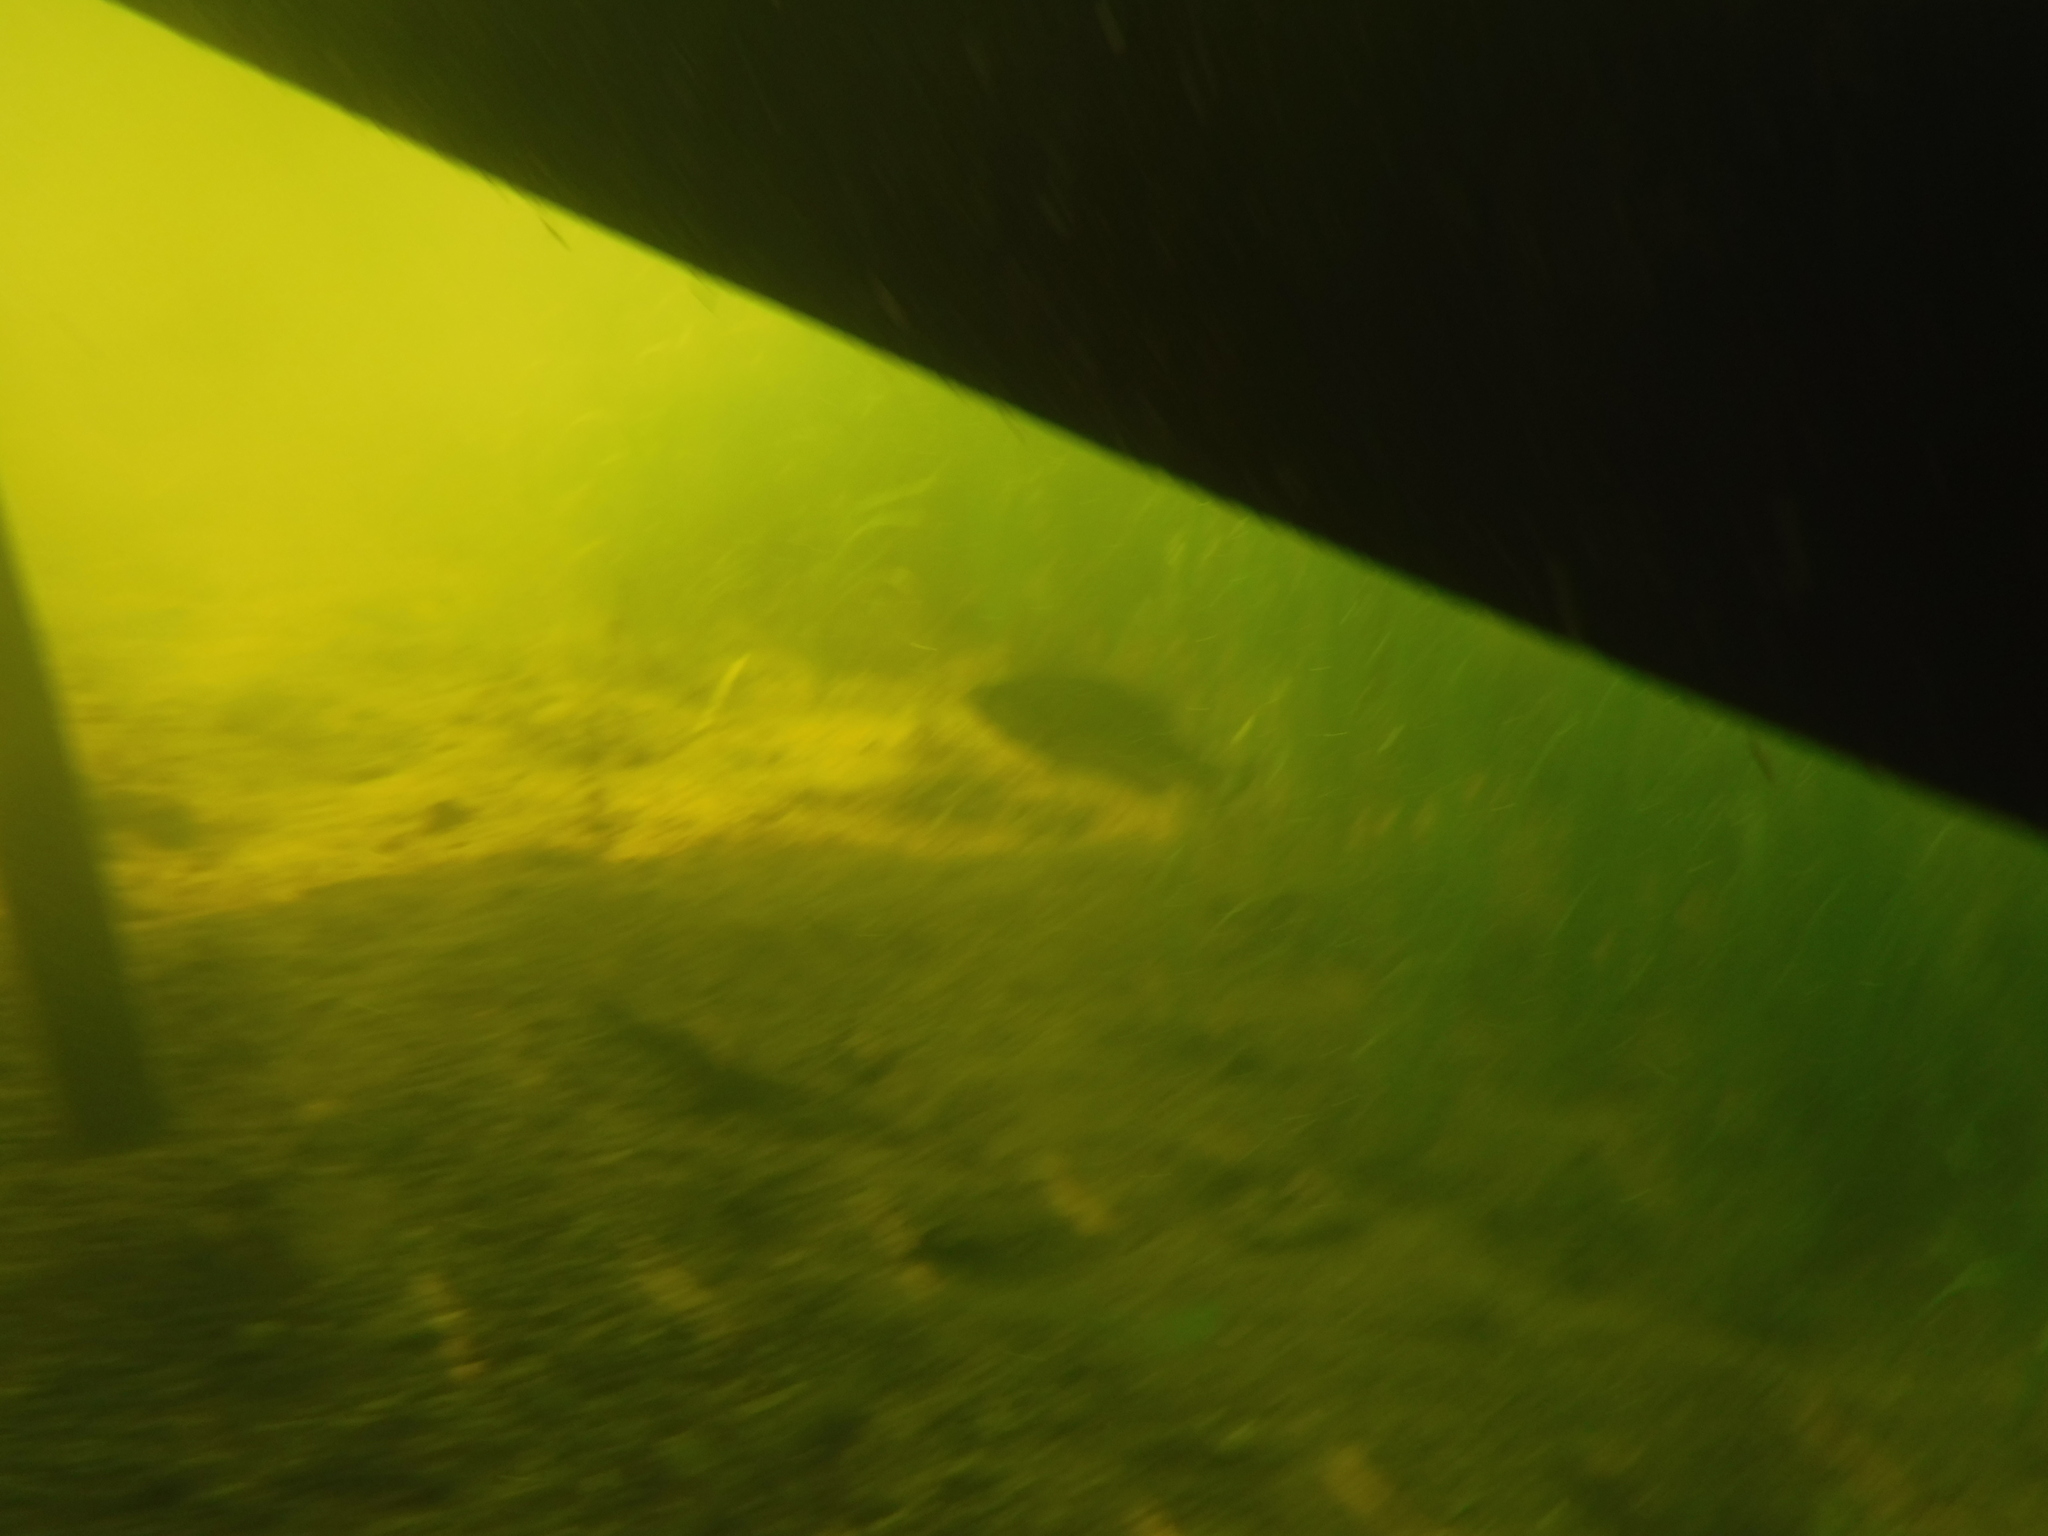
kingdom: Animalia
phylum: Chordata
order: Perciformes
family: Centrarchidae
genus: Micropterus
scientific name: Micropterus
